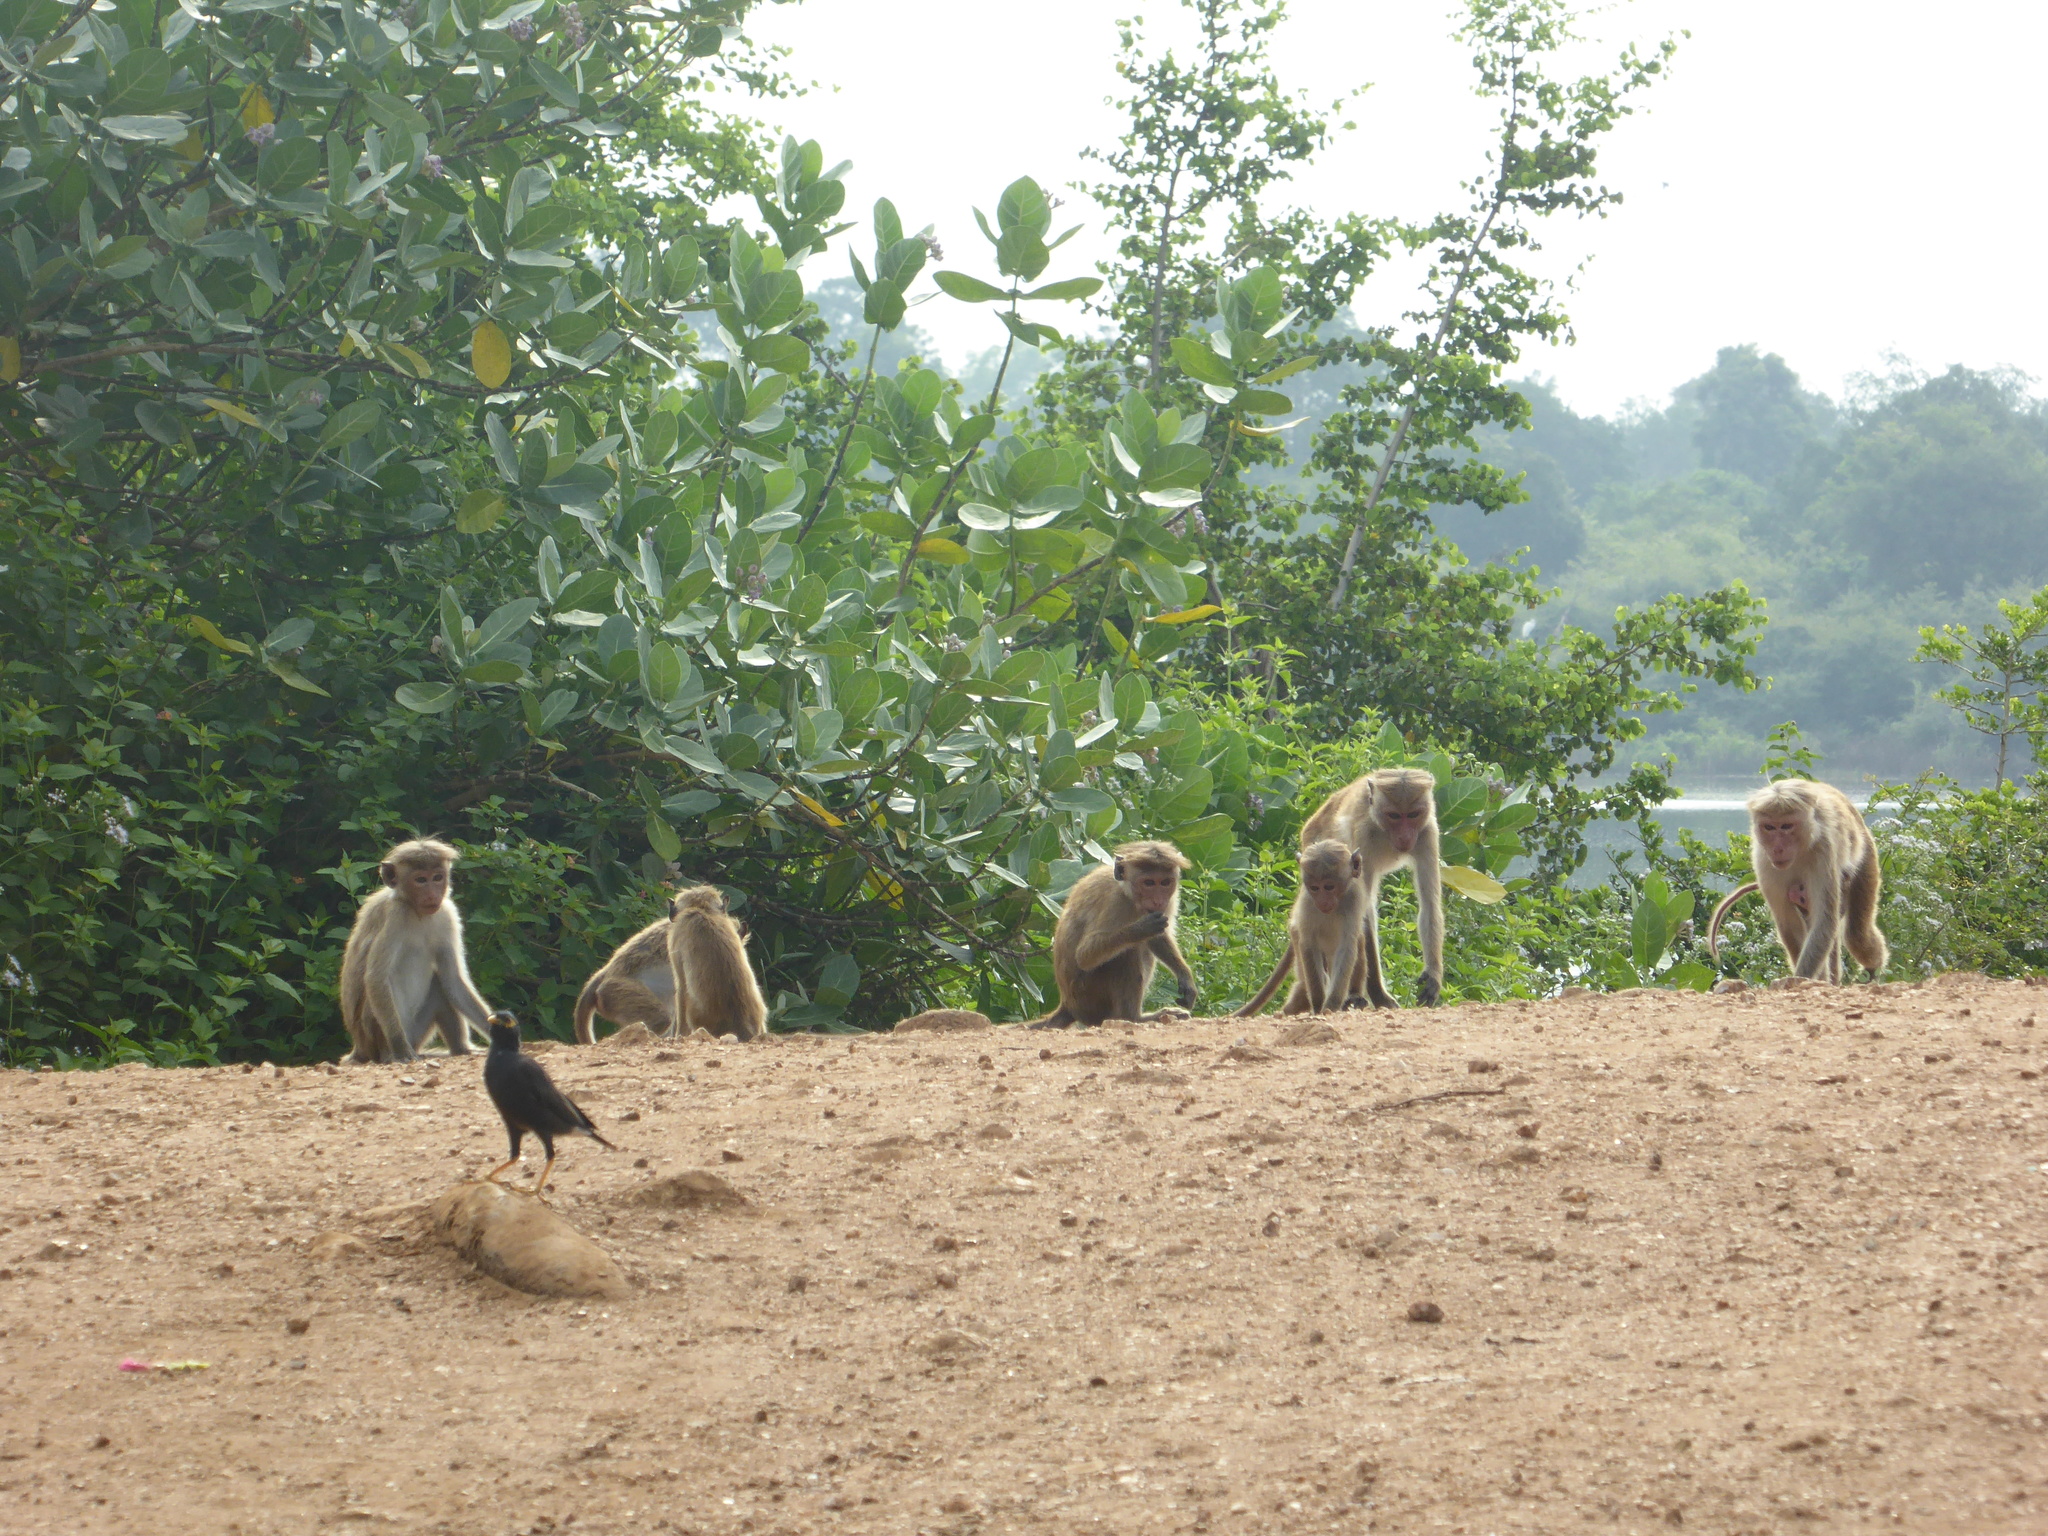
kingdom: Animalia
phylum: Chordata
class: Mammalia
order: Primates
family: Cercopithecidae
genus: Macaca
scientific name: Macaca sinica
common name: Toque macaque
